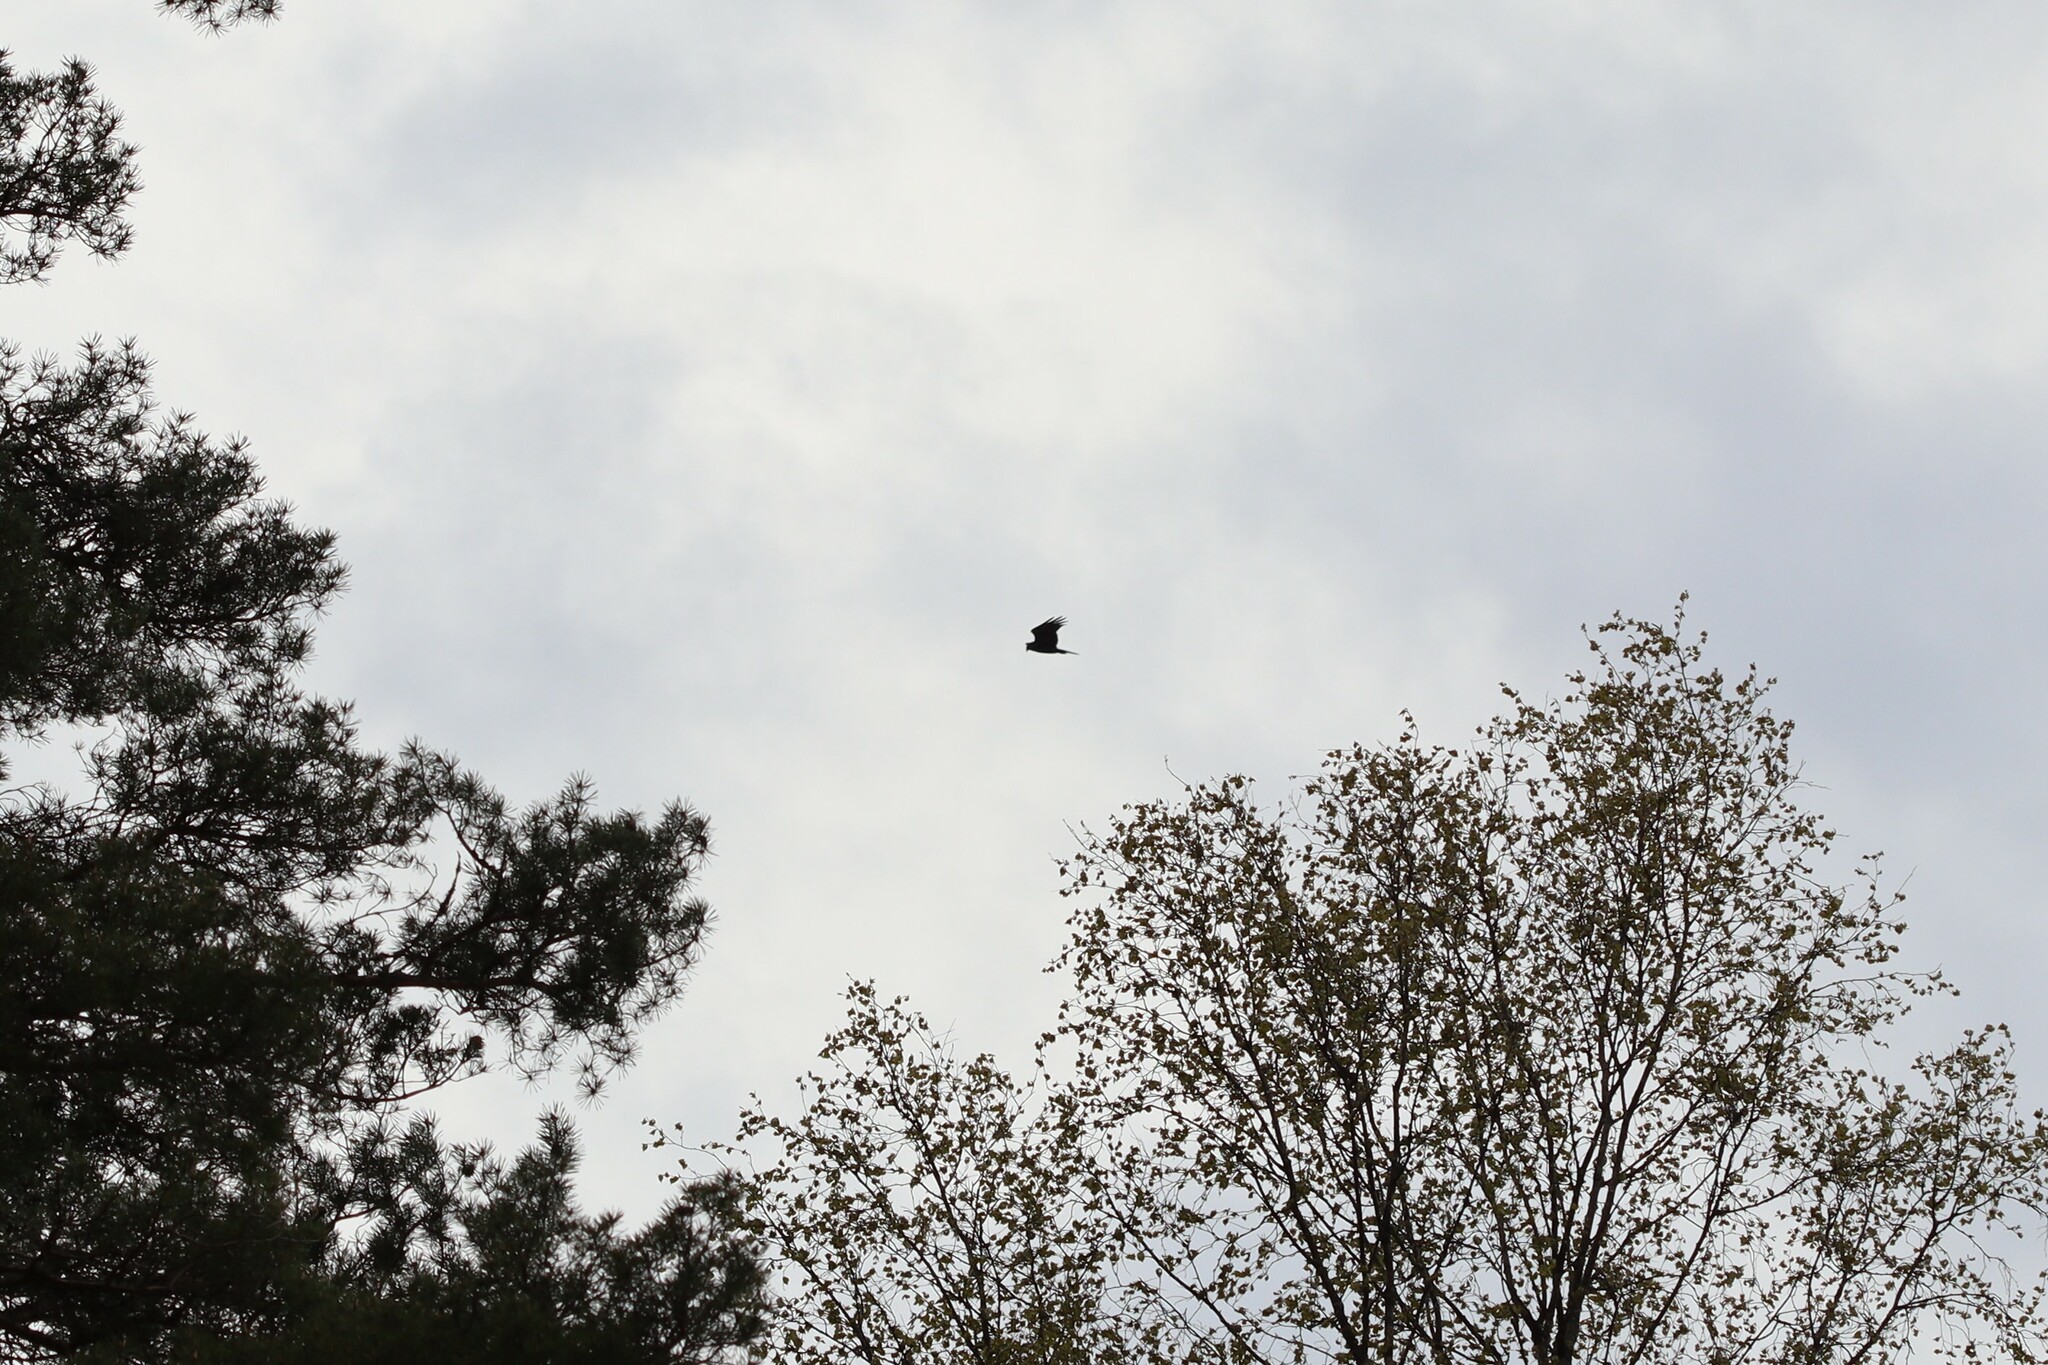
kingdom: Animalia
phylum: Chordata
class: Aves
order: Accipitriformes
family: Accipitridae
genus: Circus
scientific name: Circus aeruginosus
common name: Western marsh harrier
